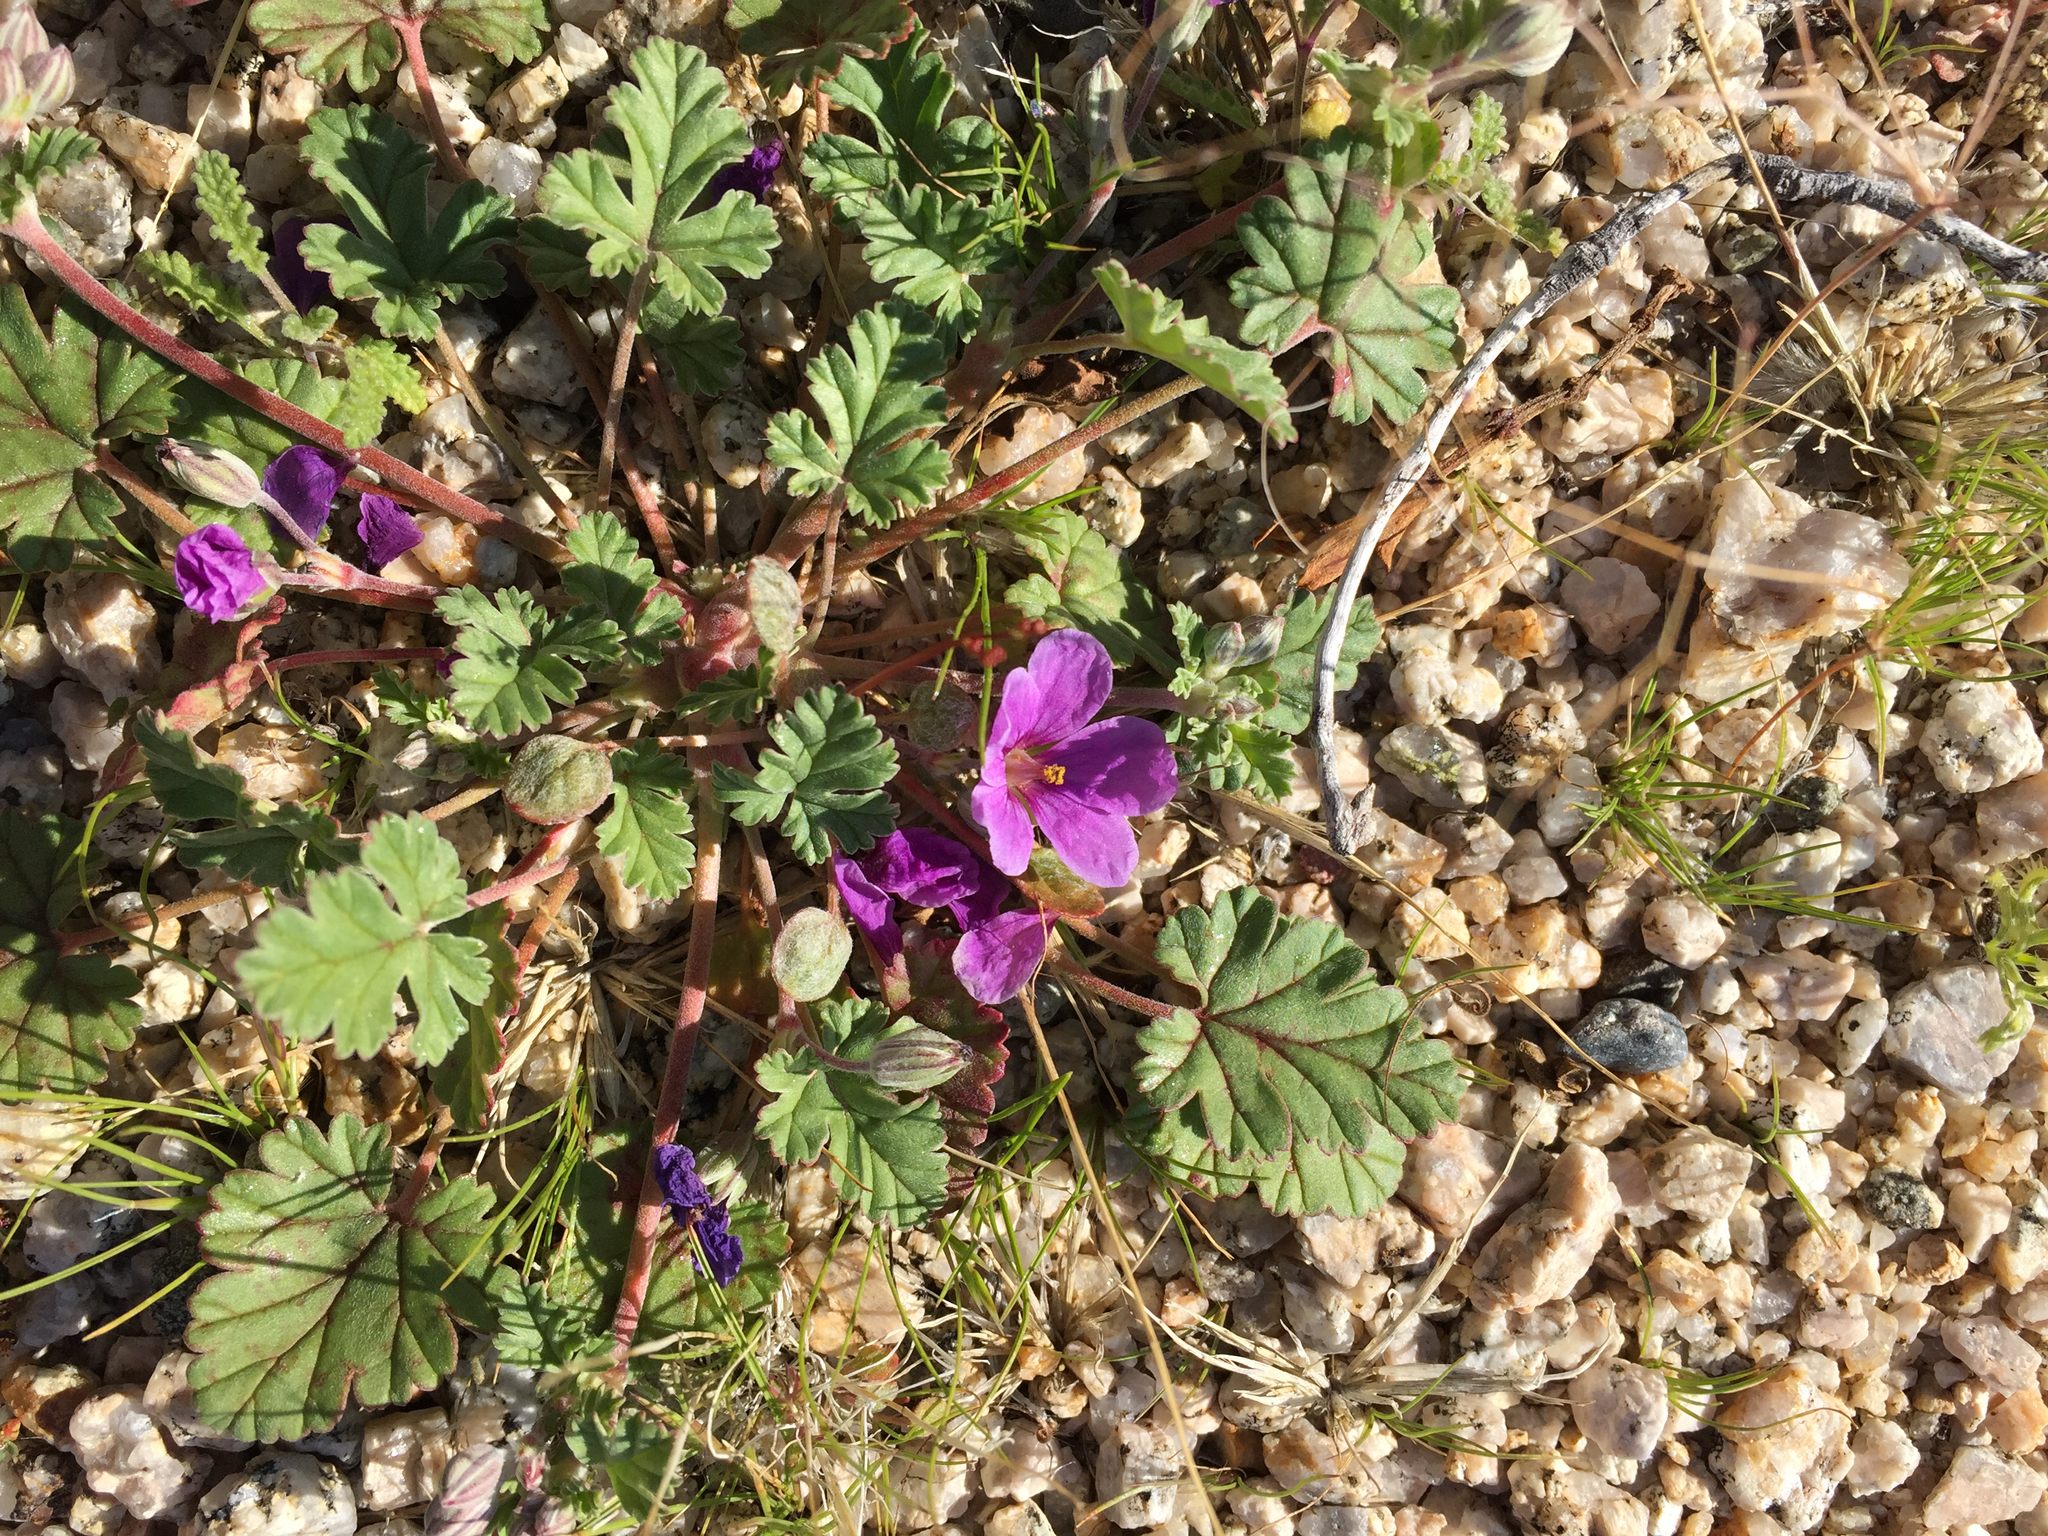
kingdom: Plantae
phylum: Tracheophyta
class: Magnoliopsida
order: Geraniales
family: Geraniaceae
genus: Erodium
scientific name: Erodium texanum
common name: Texas stork's-bill
